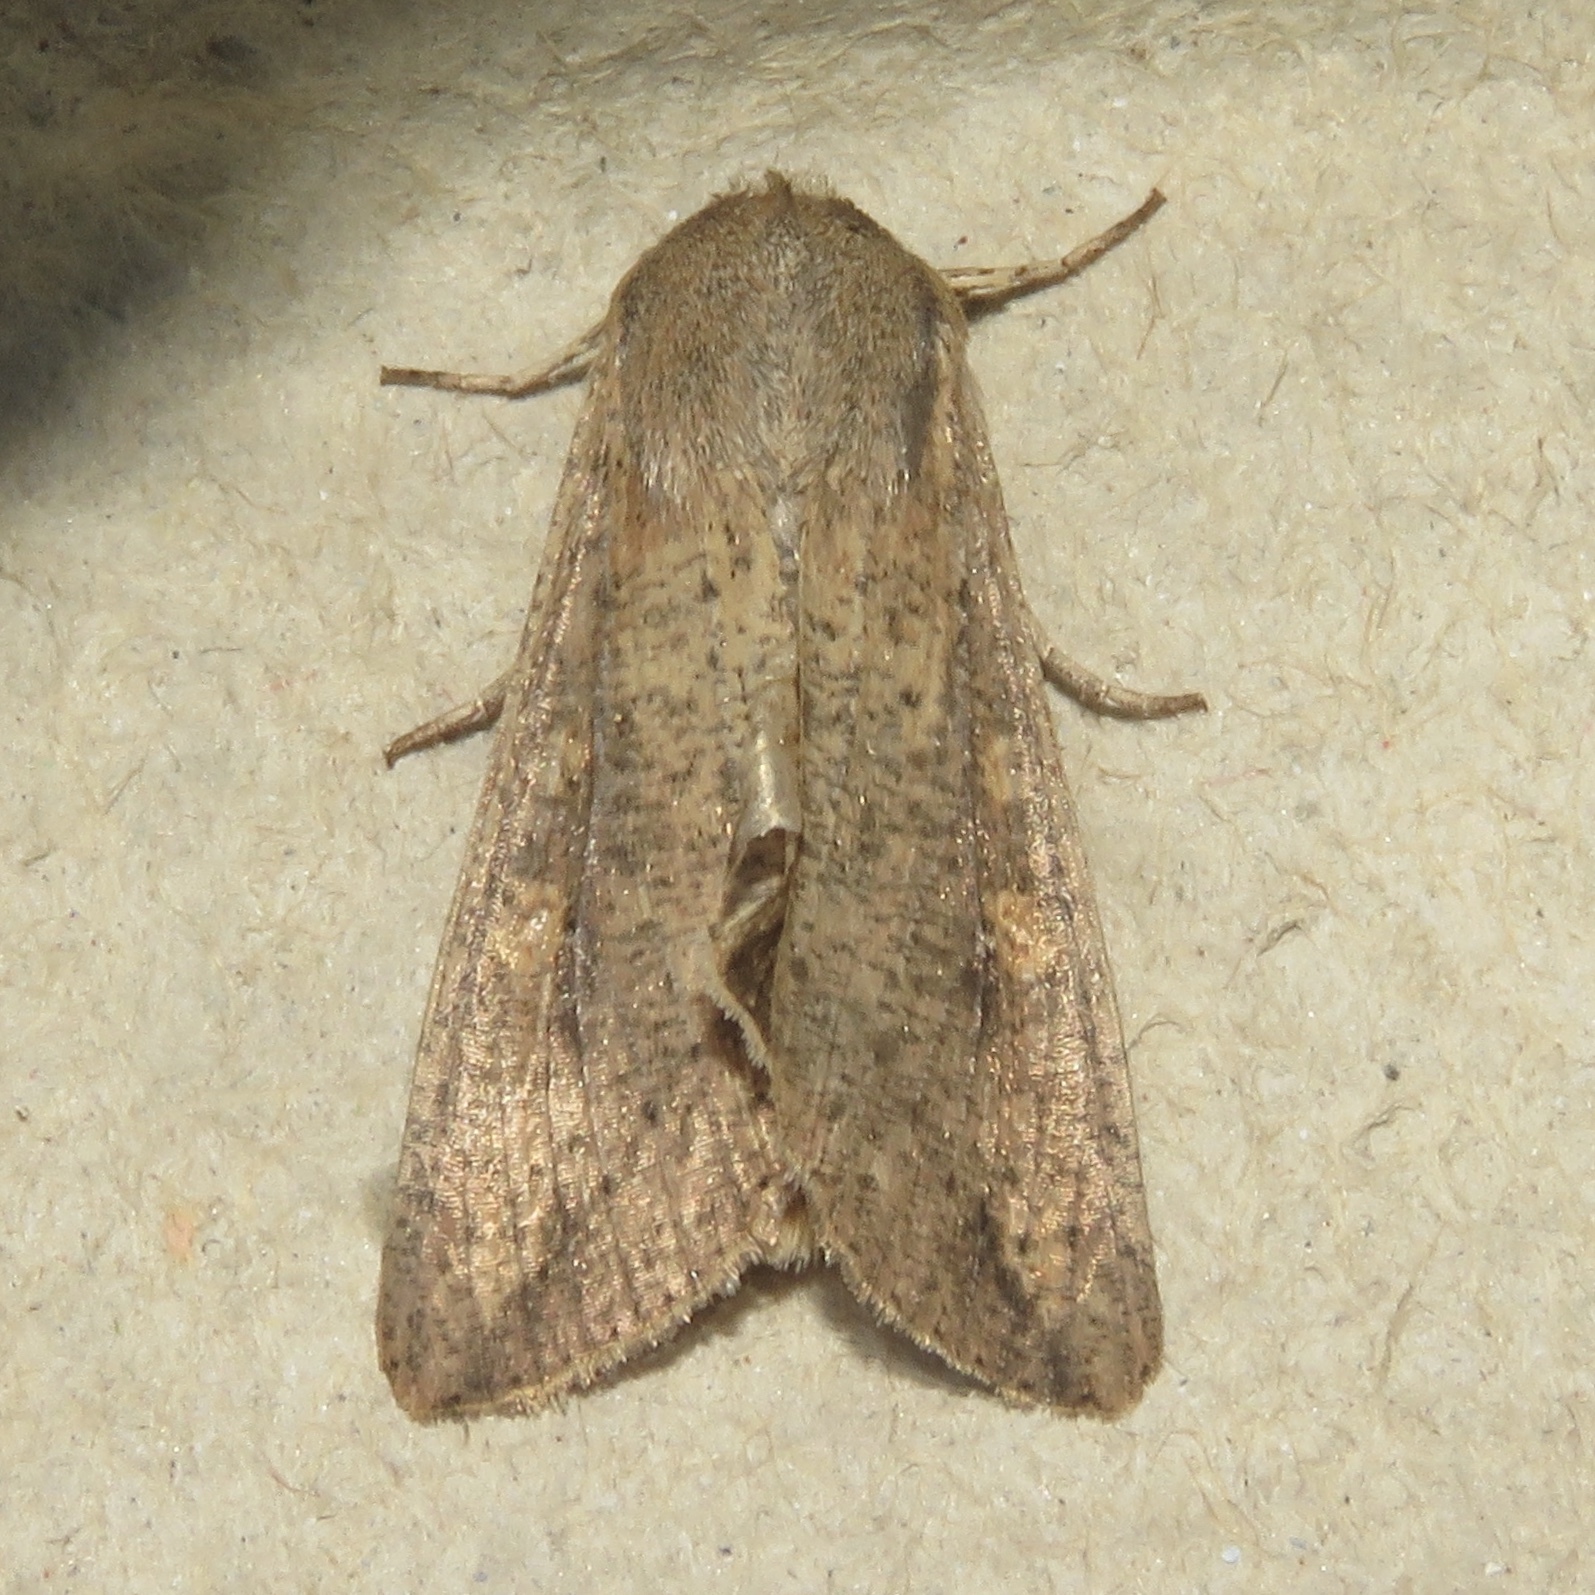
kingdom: Animalia
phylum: Arthropoda
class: Insecta
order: Lepidoptera
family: Noctuidae
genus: Mythimna
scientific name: Mythimna unipuncta
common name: White-speck
